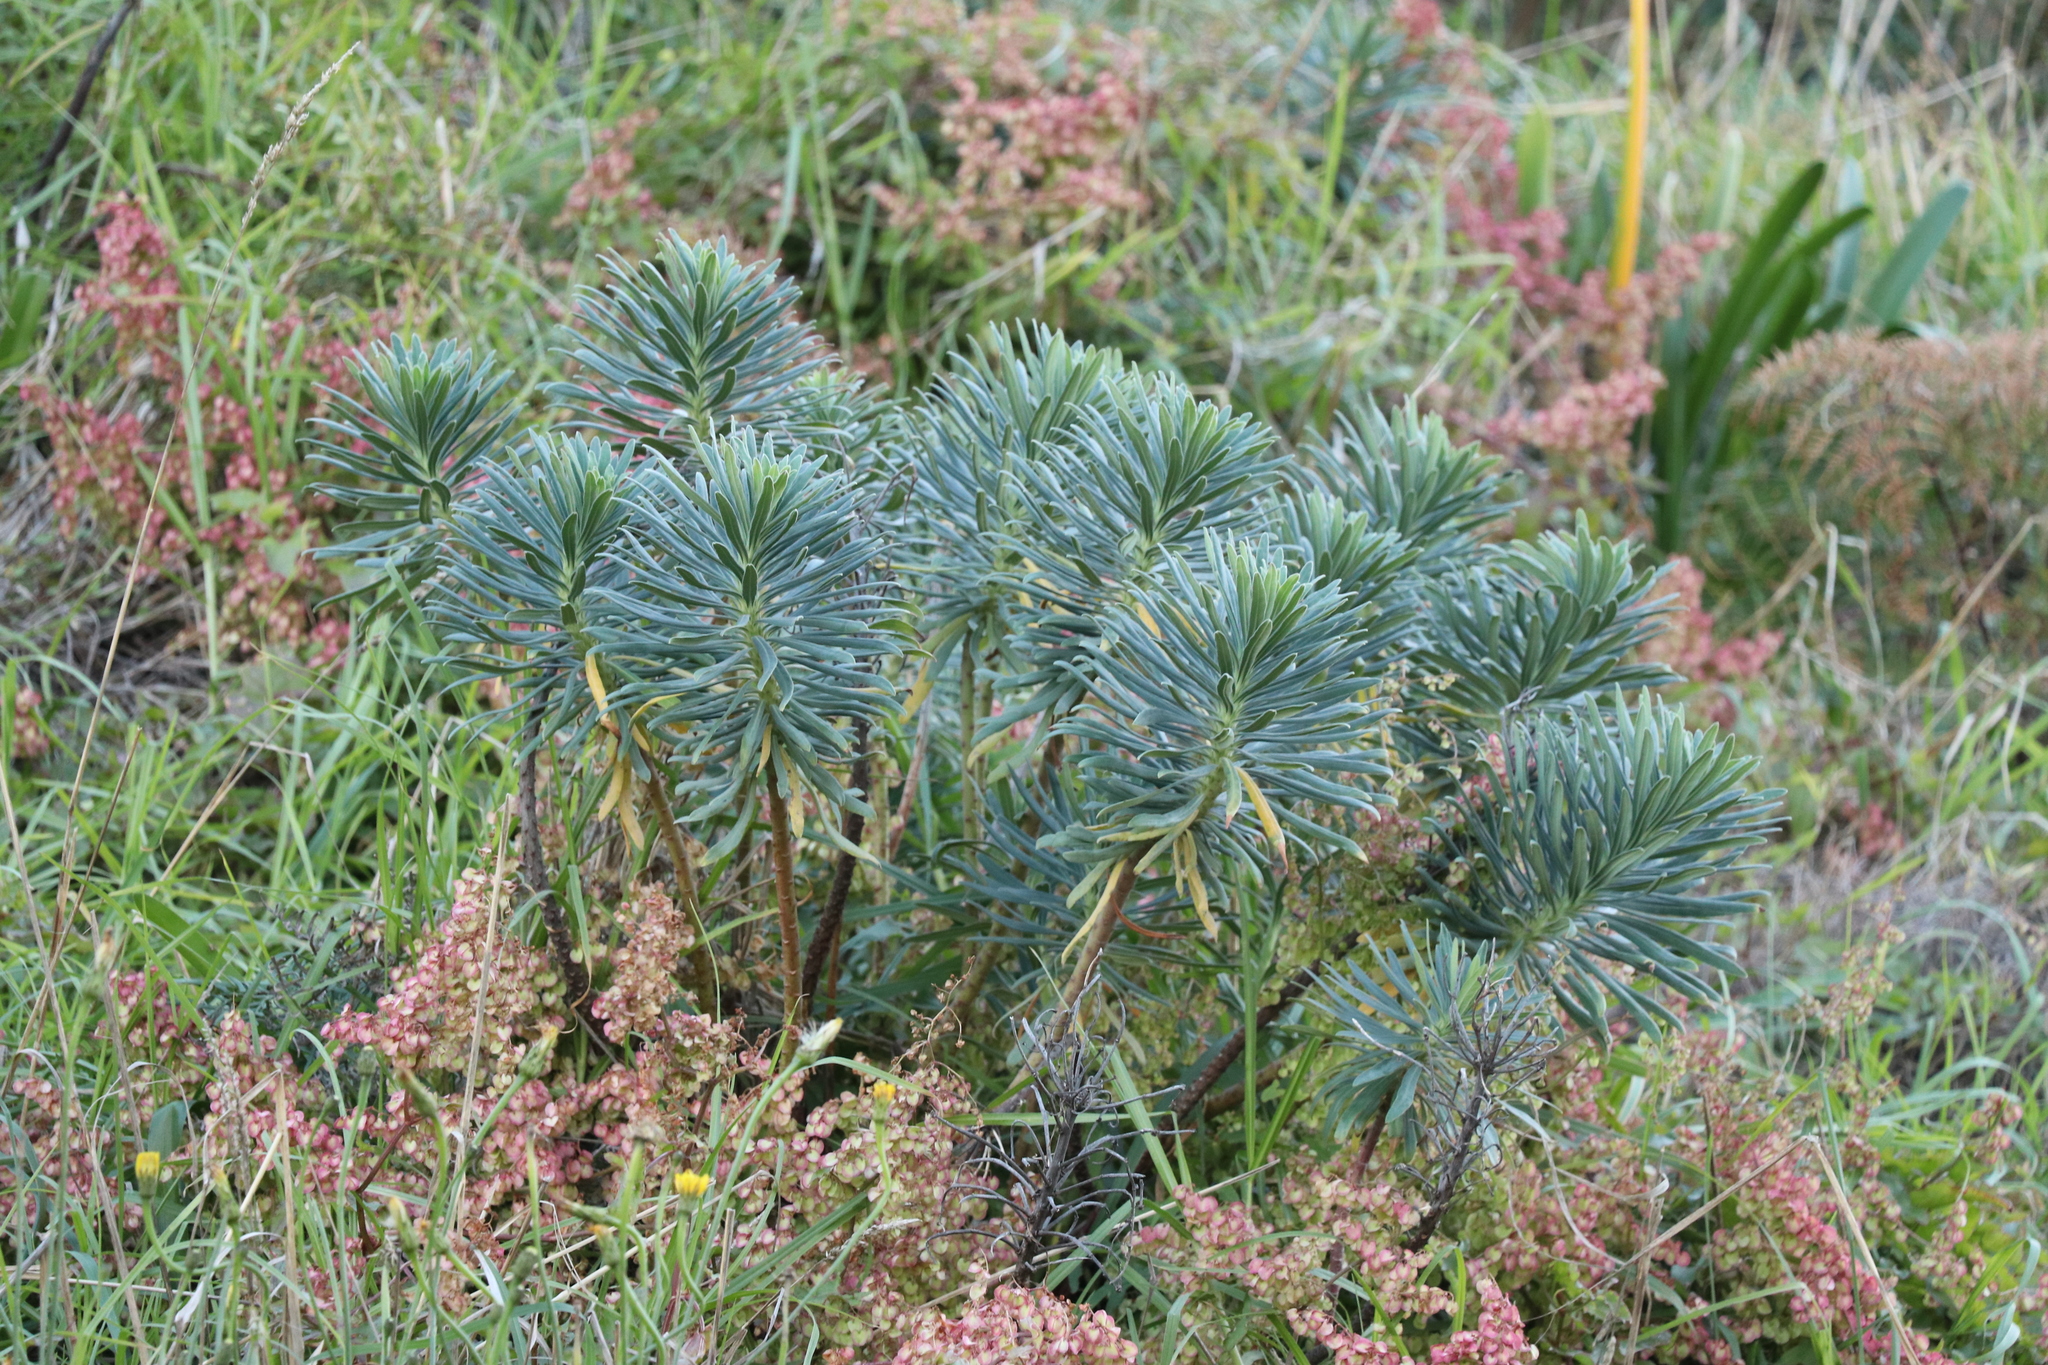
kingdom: Plantae
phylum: Tracheophyta
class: Magnoliopsida
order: Malpighiales
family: Euphorbiaceae
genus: Euphorbia
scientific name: Euphorbia characias
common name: Mediterranean spurge
